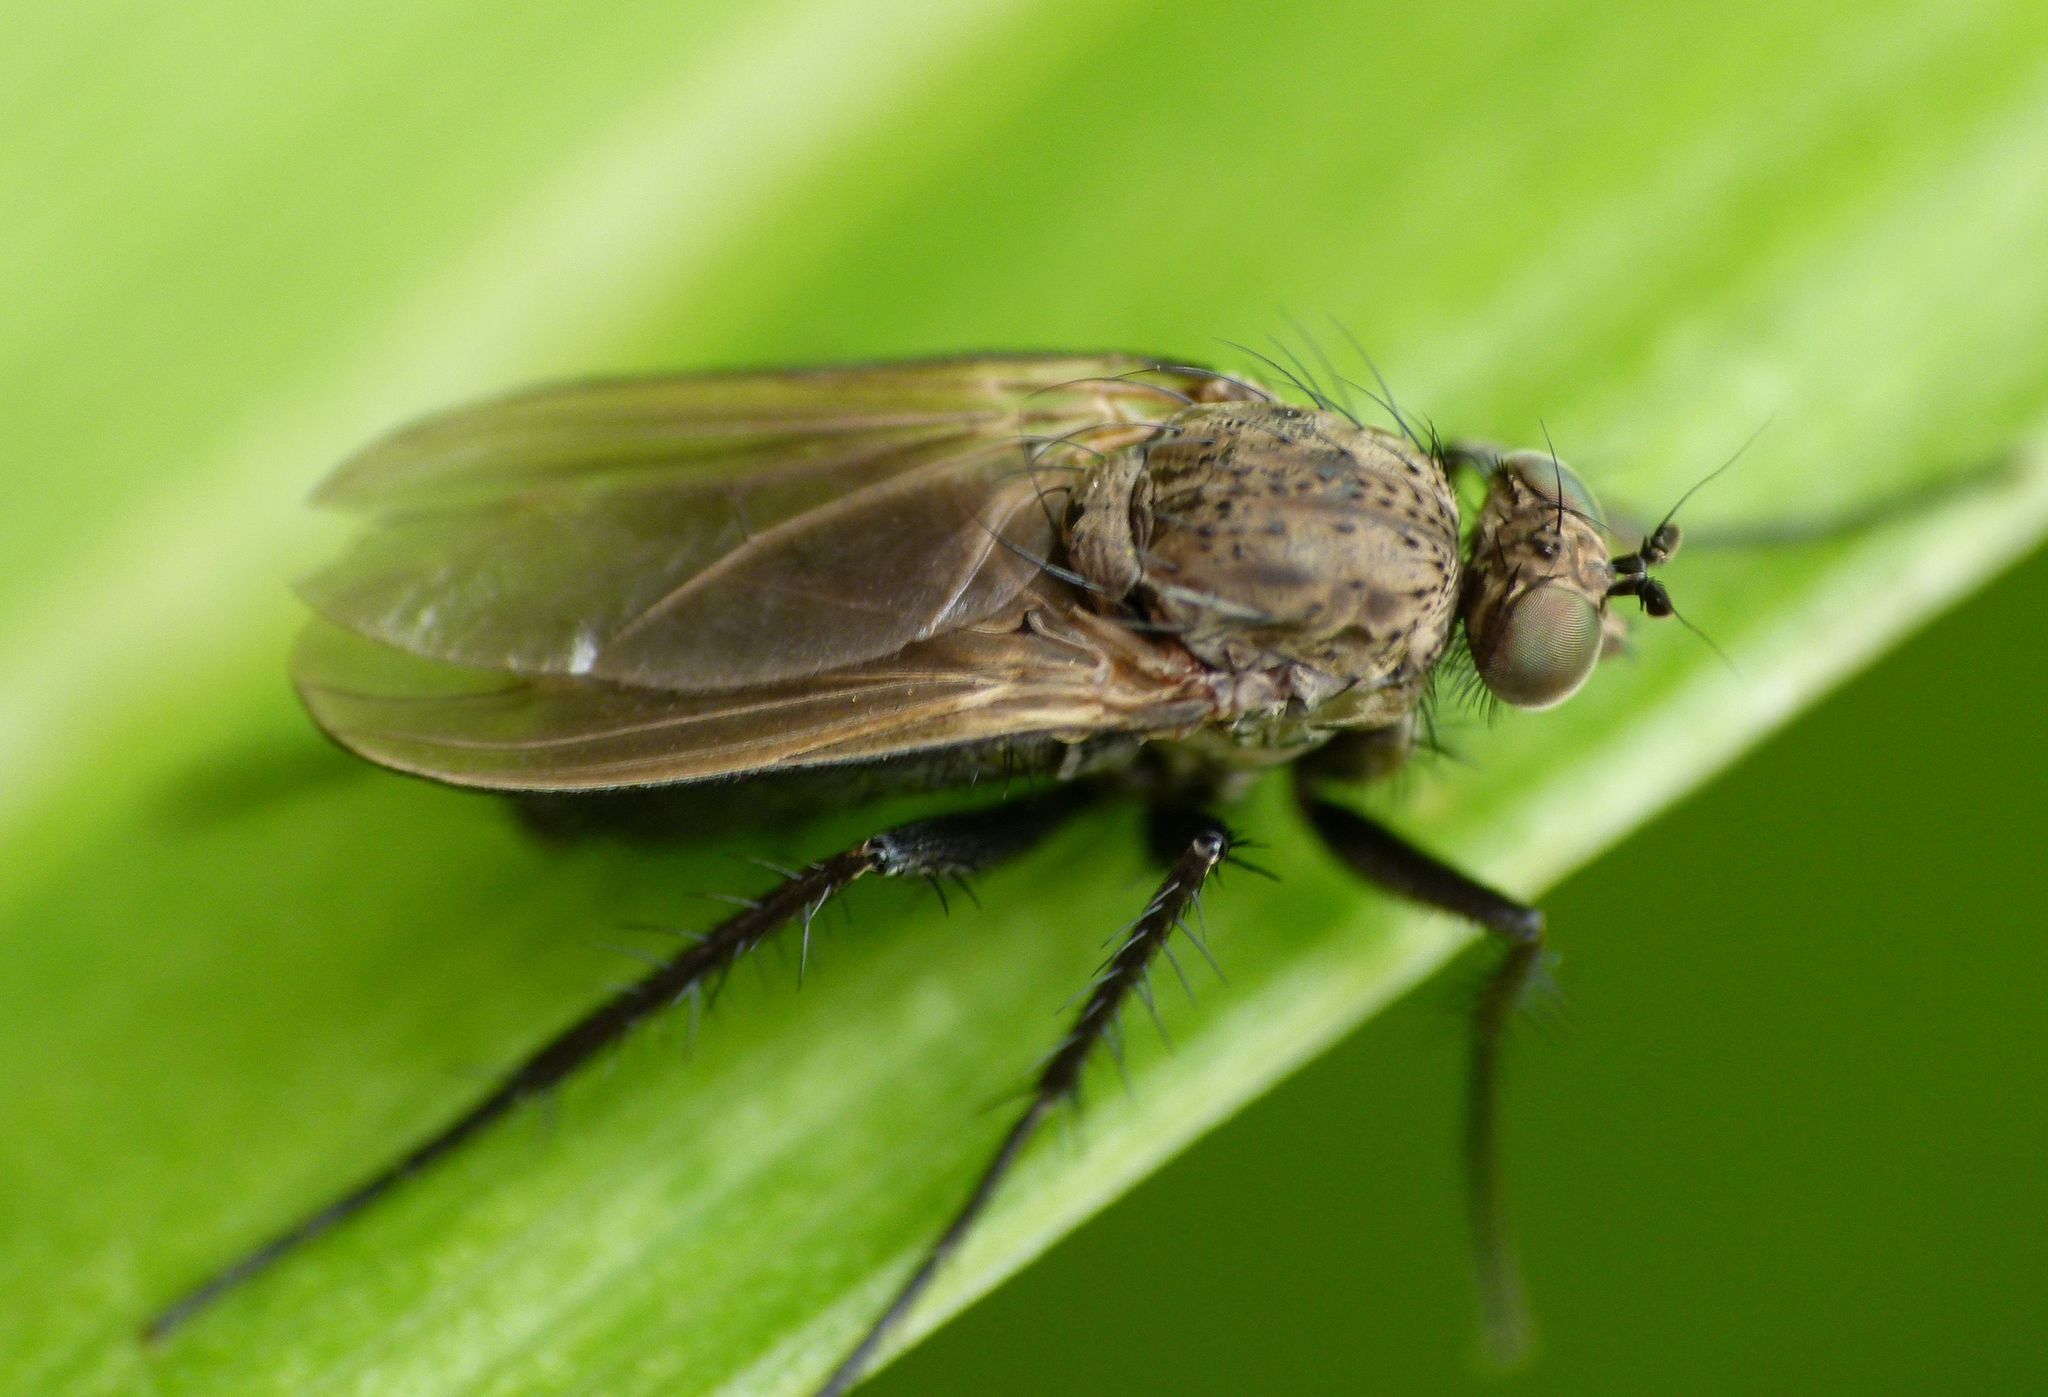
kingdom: Animalia
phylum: Arthropoda
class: Insecta
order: Diptera
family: Dolichopodidae
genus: Ostenia
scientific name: Ostenia robusta
